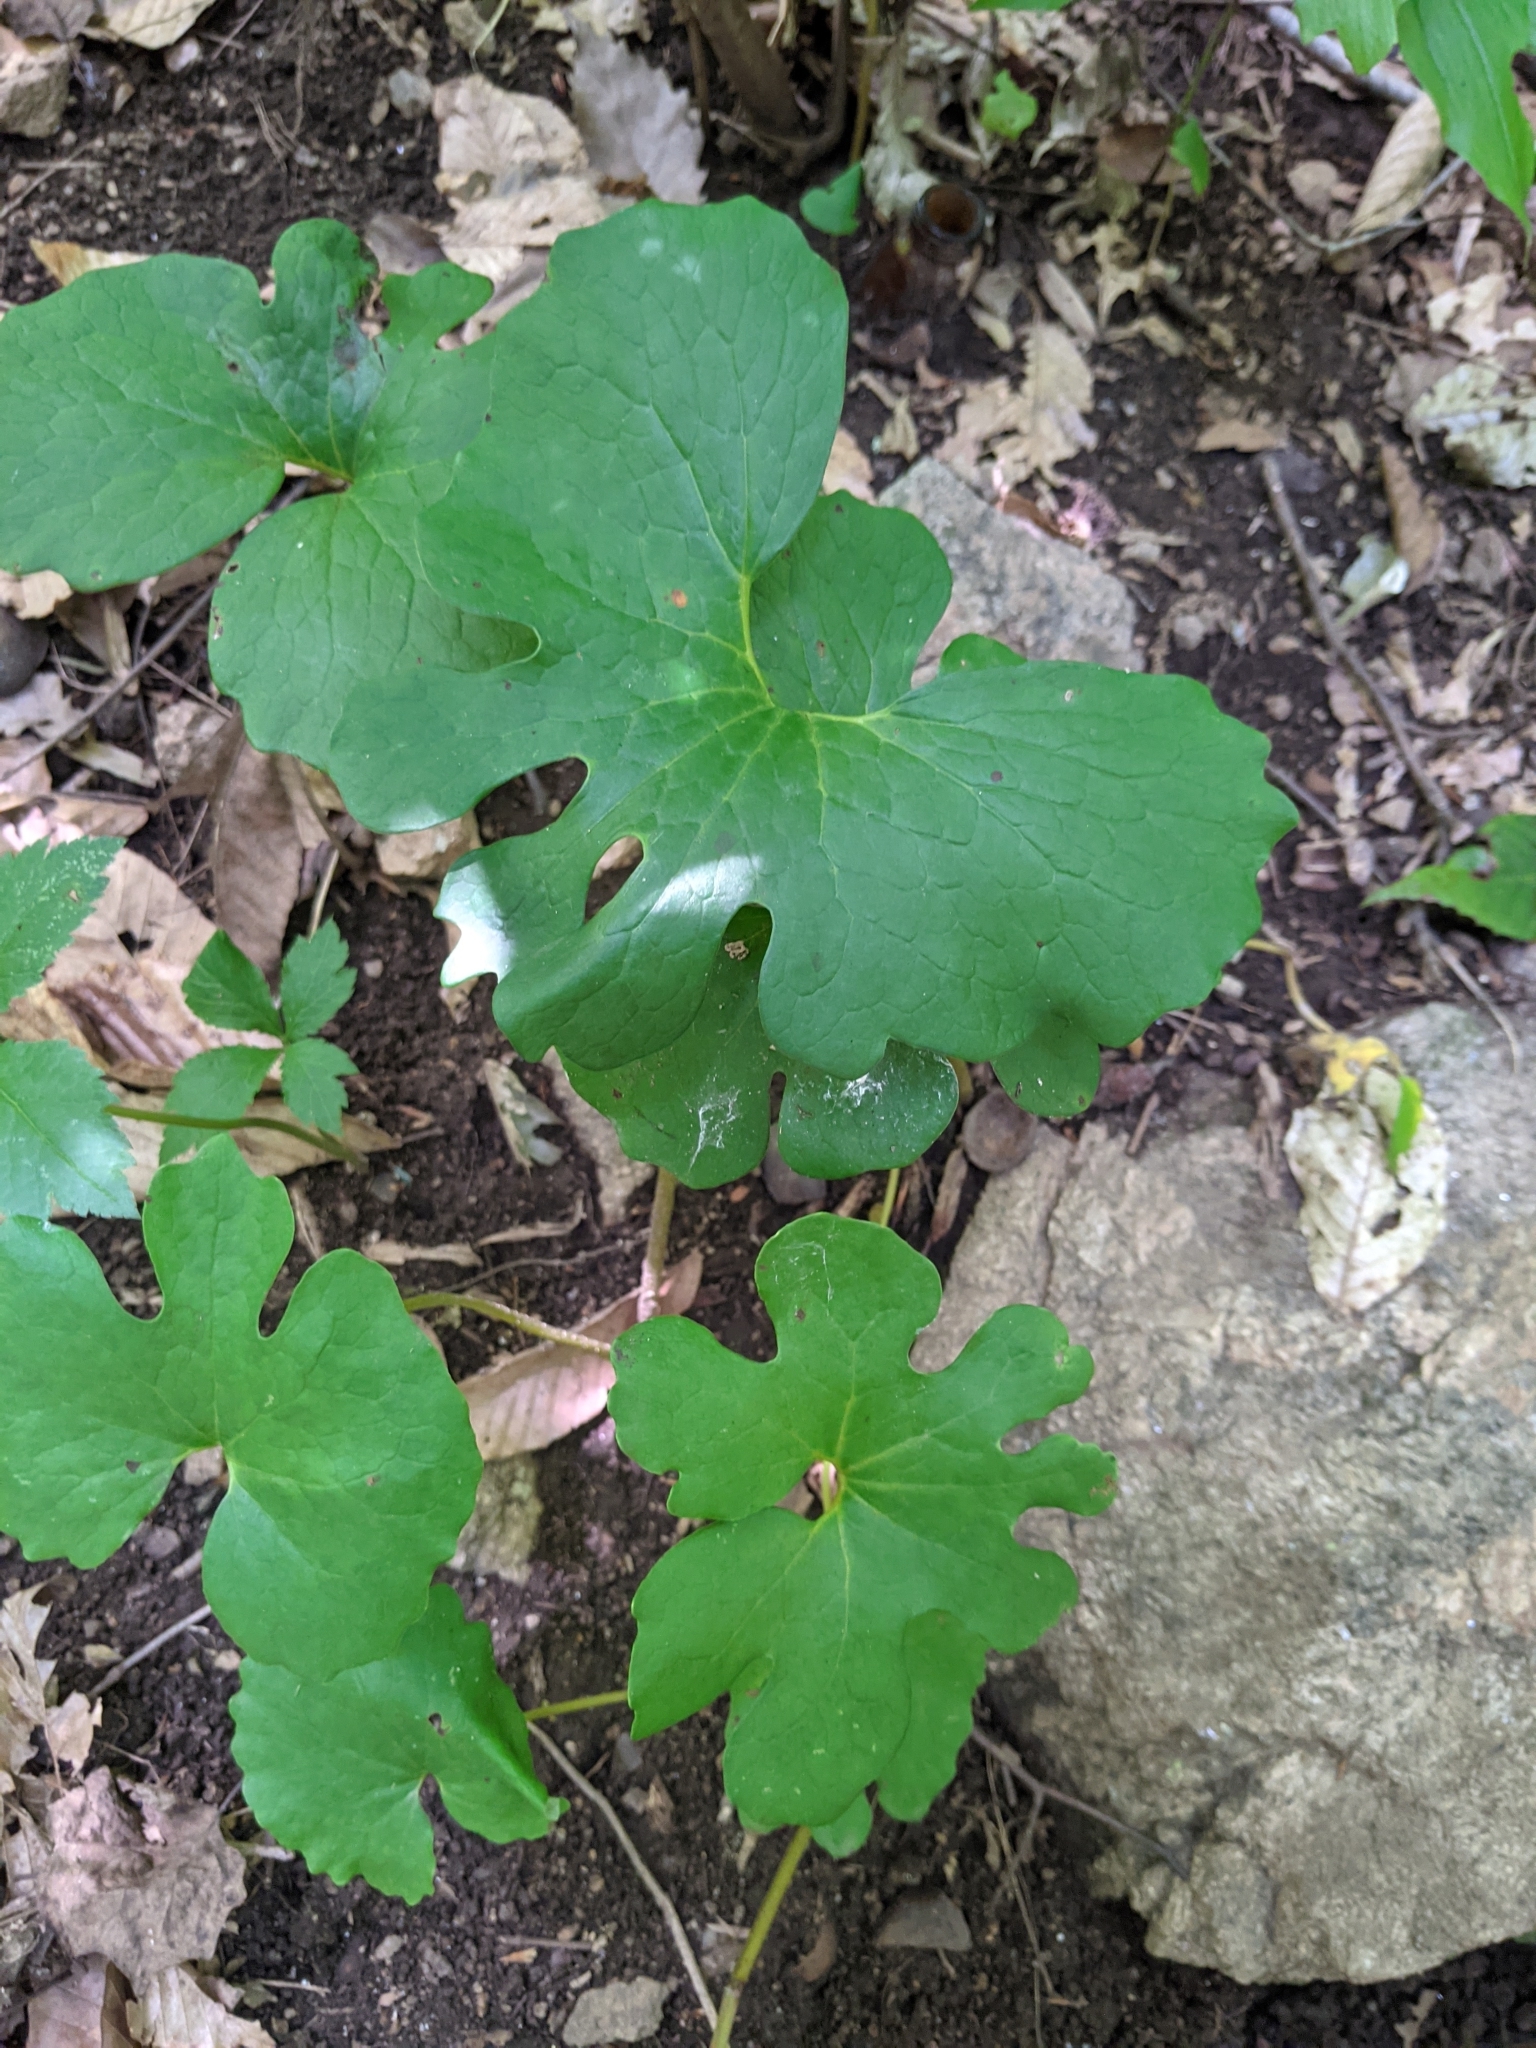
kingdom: Plantae
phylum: Tracheophyta
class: Magnoliopsida
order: Ranunculales
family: Papaveraceae
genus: Sanguinaria
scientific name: Sanguinaria canadensis
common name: Bloodroot
